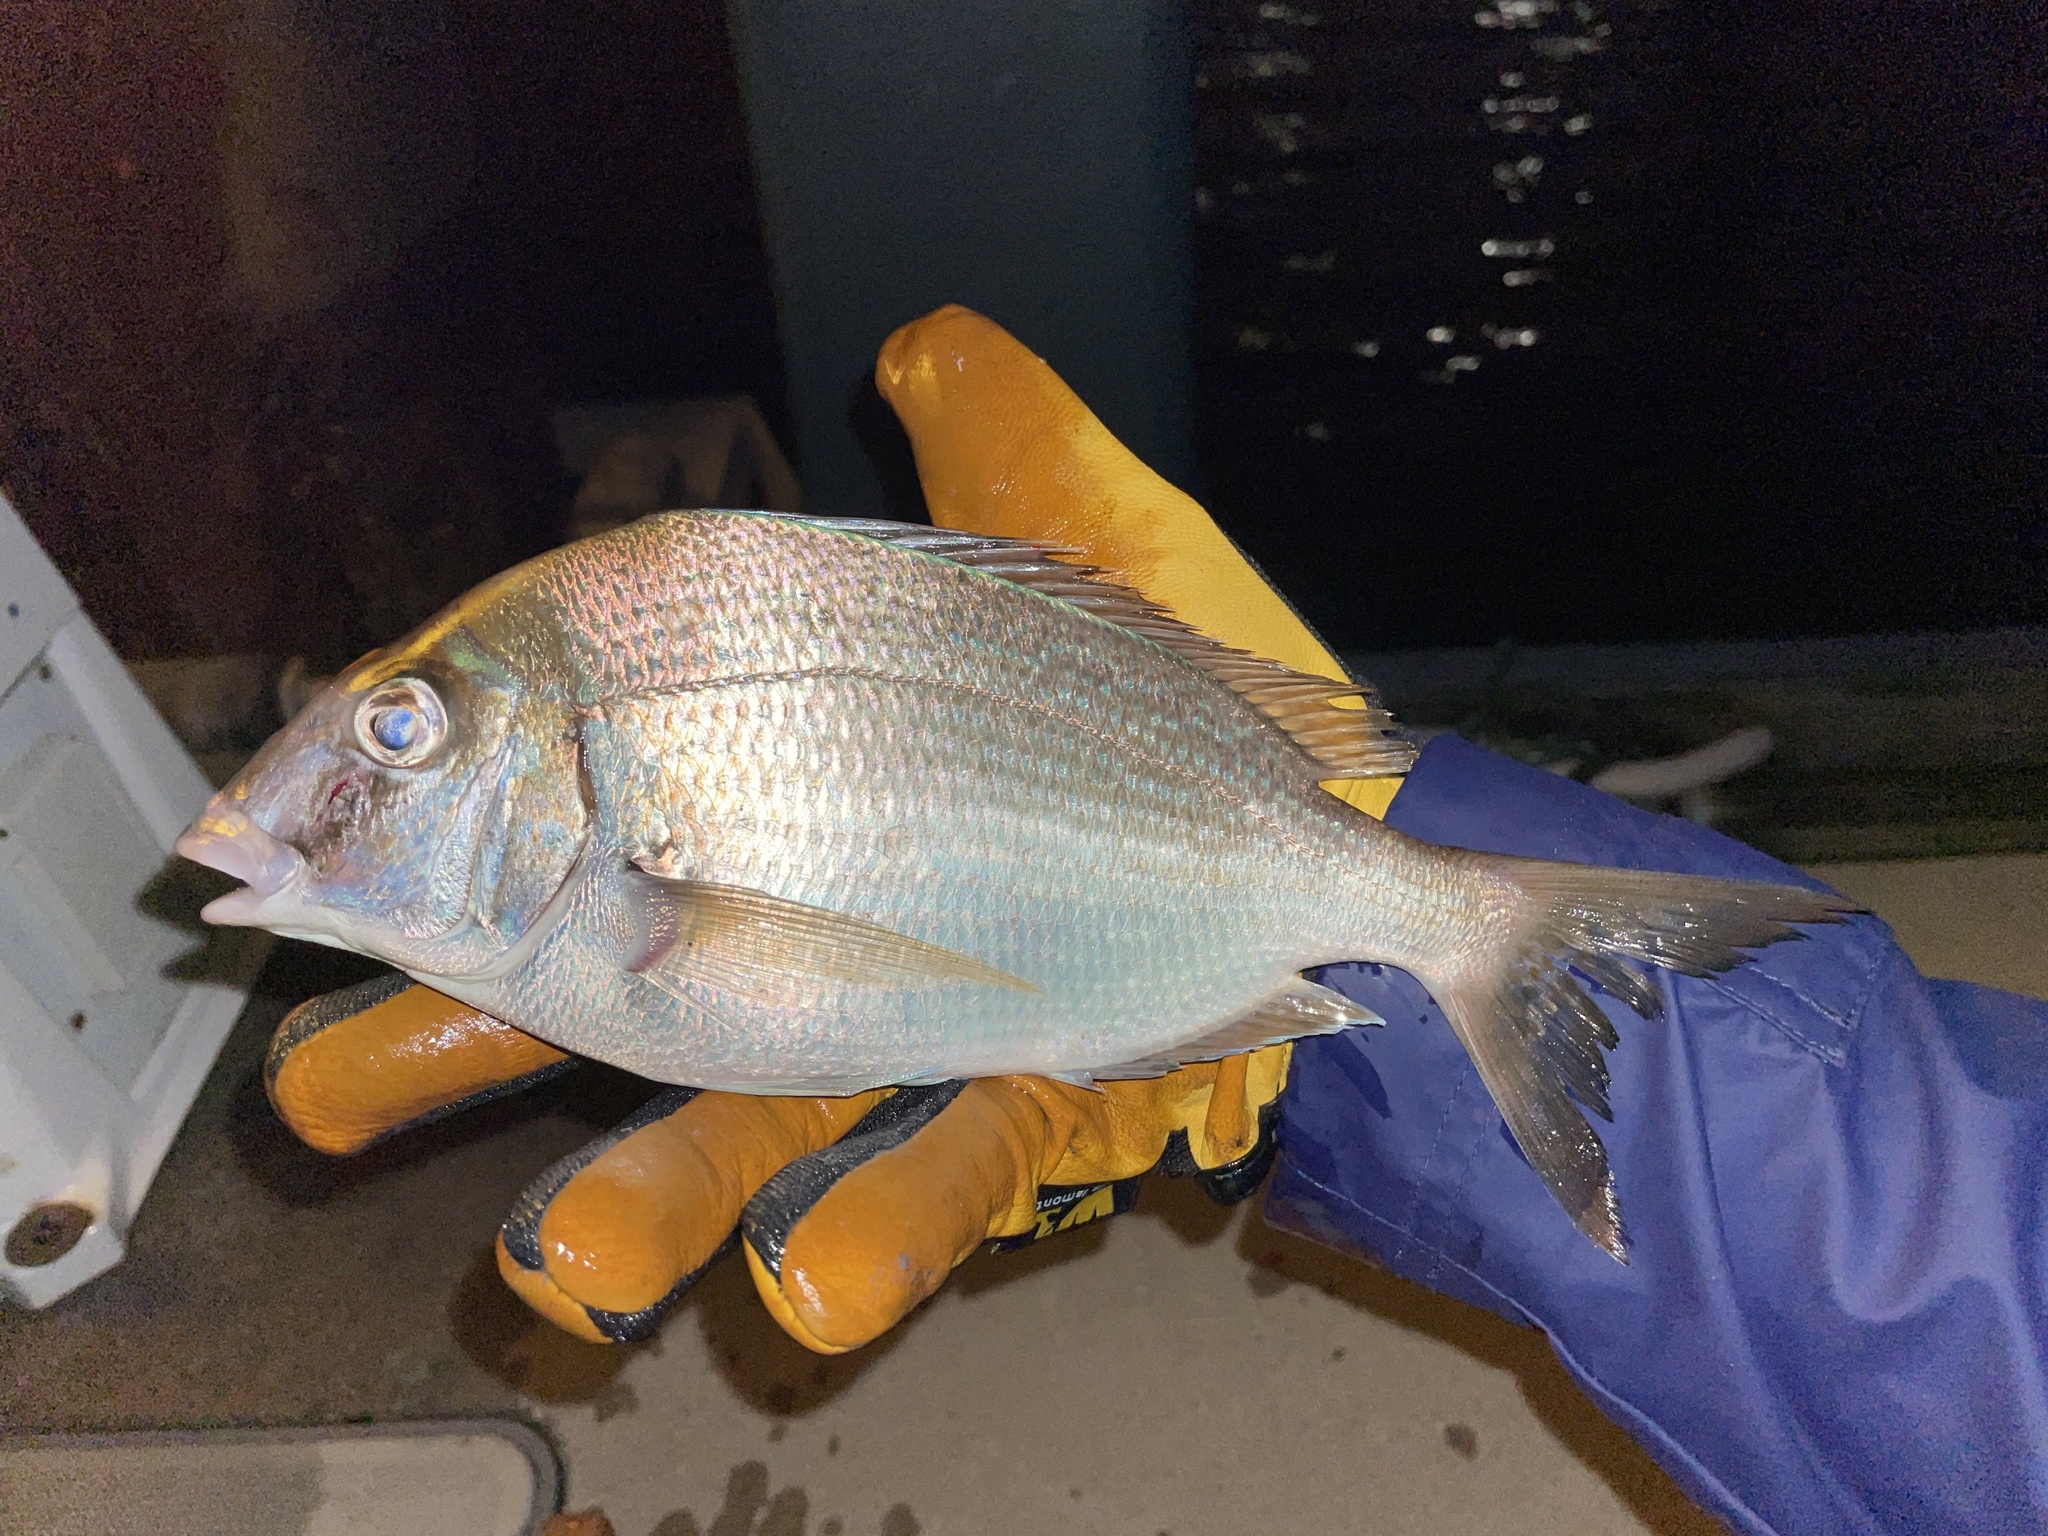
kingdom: Animalia
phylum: Chordata
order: Perciformes
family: Sparidae
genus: Stenotomus
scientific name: Stenotomus chrysops
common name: Scup
